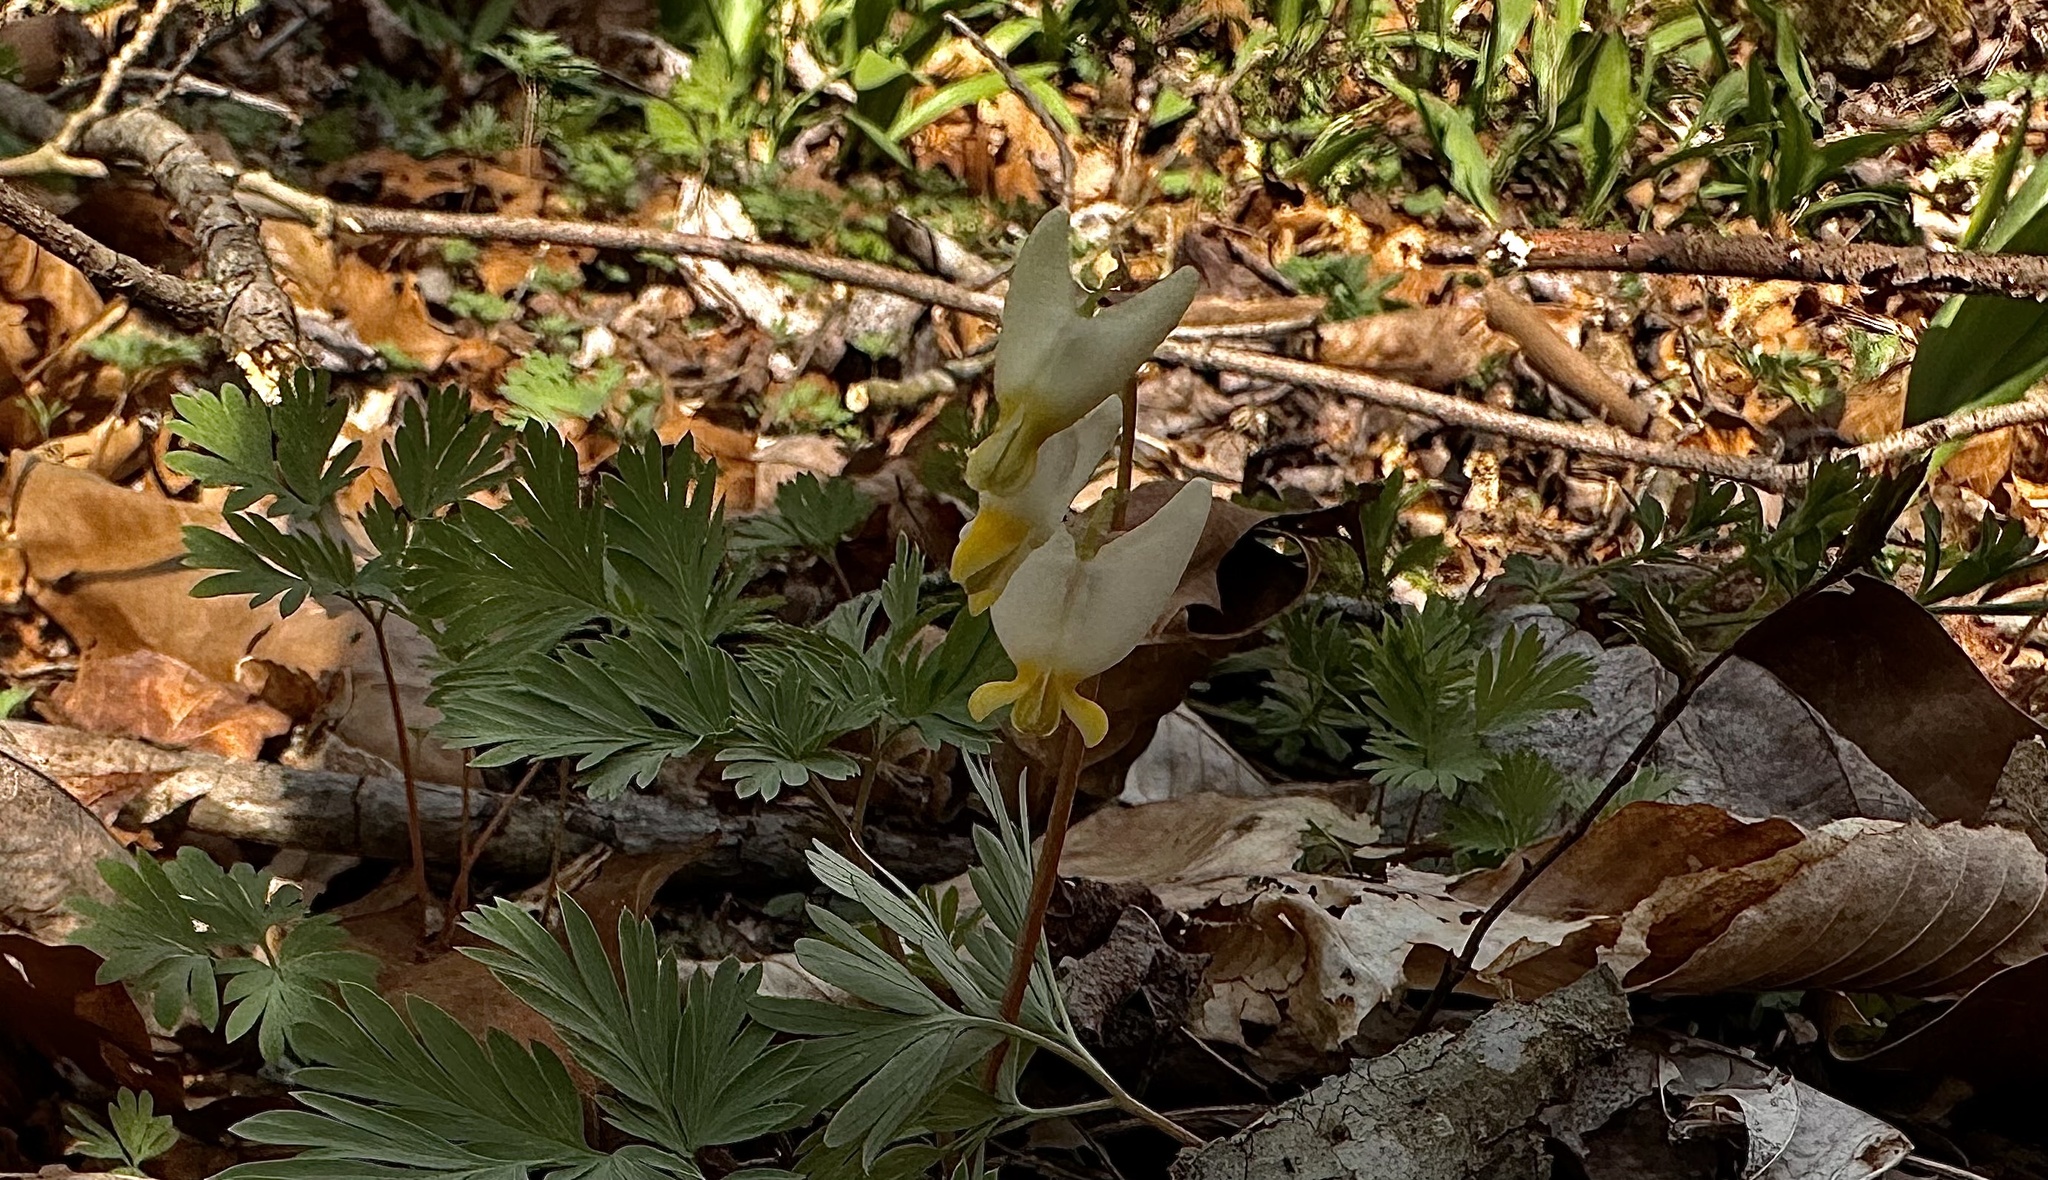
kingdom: Plantae
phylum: Tracheophyta
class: Magnoliopsida
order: Ranunculales
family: Papaveraceae
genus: Dicentra
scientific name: Dicentra cucullaria
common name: Dutchman's breeches
